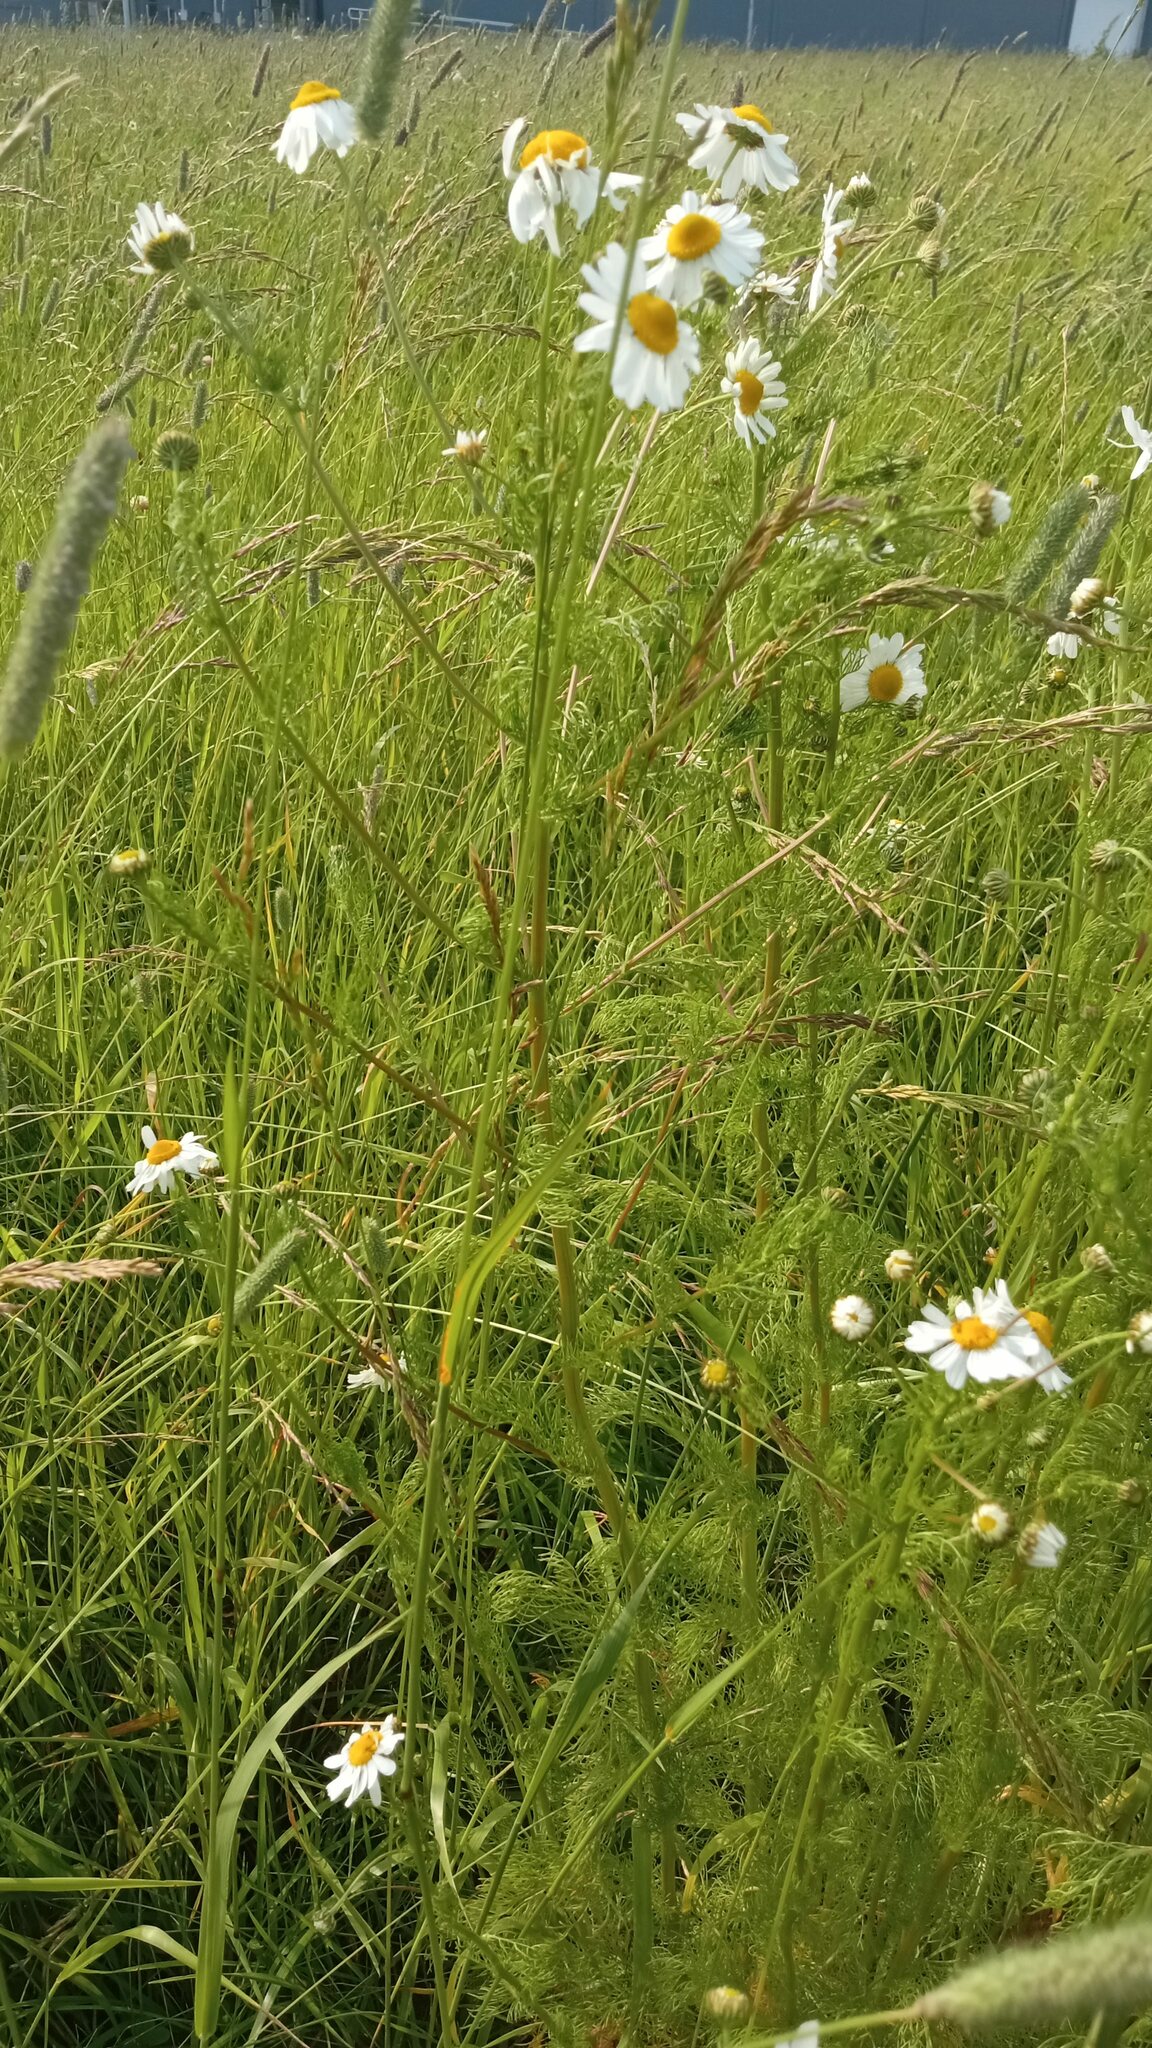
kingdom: Plantae
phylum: Tracheophyta
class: Magnoliopsida
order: Asterales
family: Asteraceae
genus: Tripleurospermum
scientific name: Tripleurospermum inodorum
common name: Scentless mayweed
